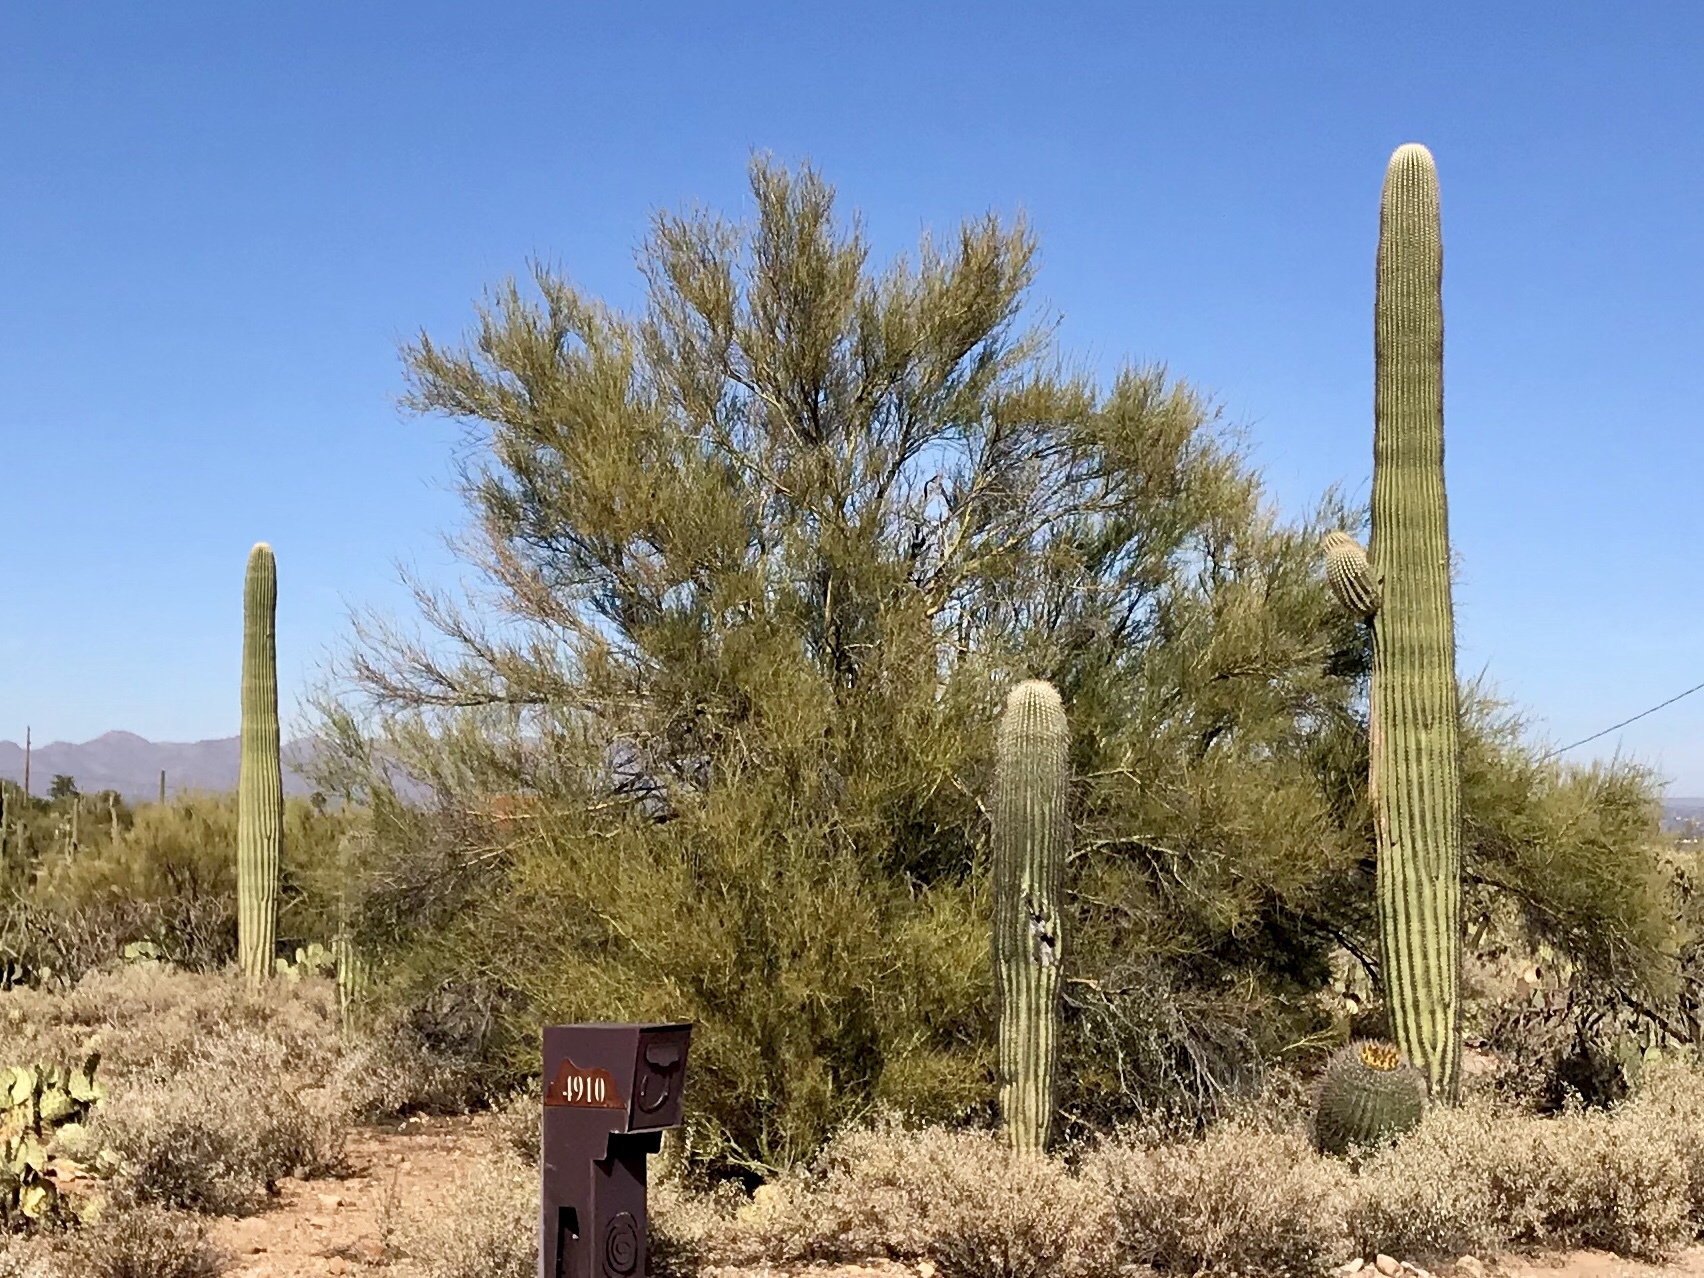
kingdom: Plantae
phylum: Tracheophyta
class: Magnoliopsida
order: Fabales
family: Fabaceae
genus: Parkinsonia
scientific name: Parkinsonia florida
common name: Blue paloverde
